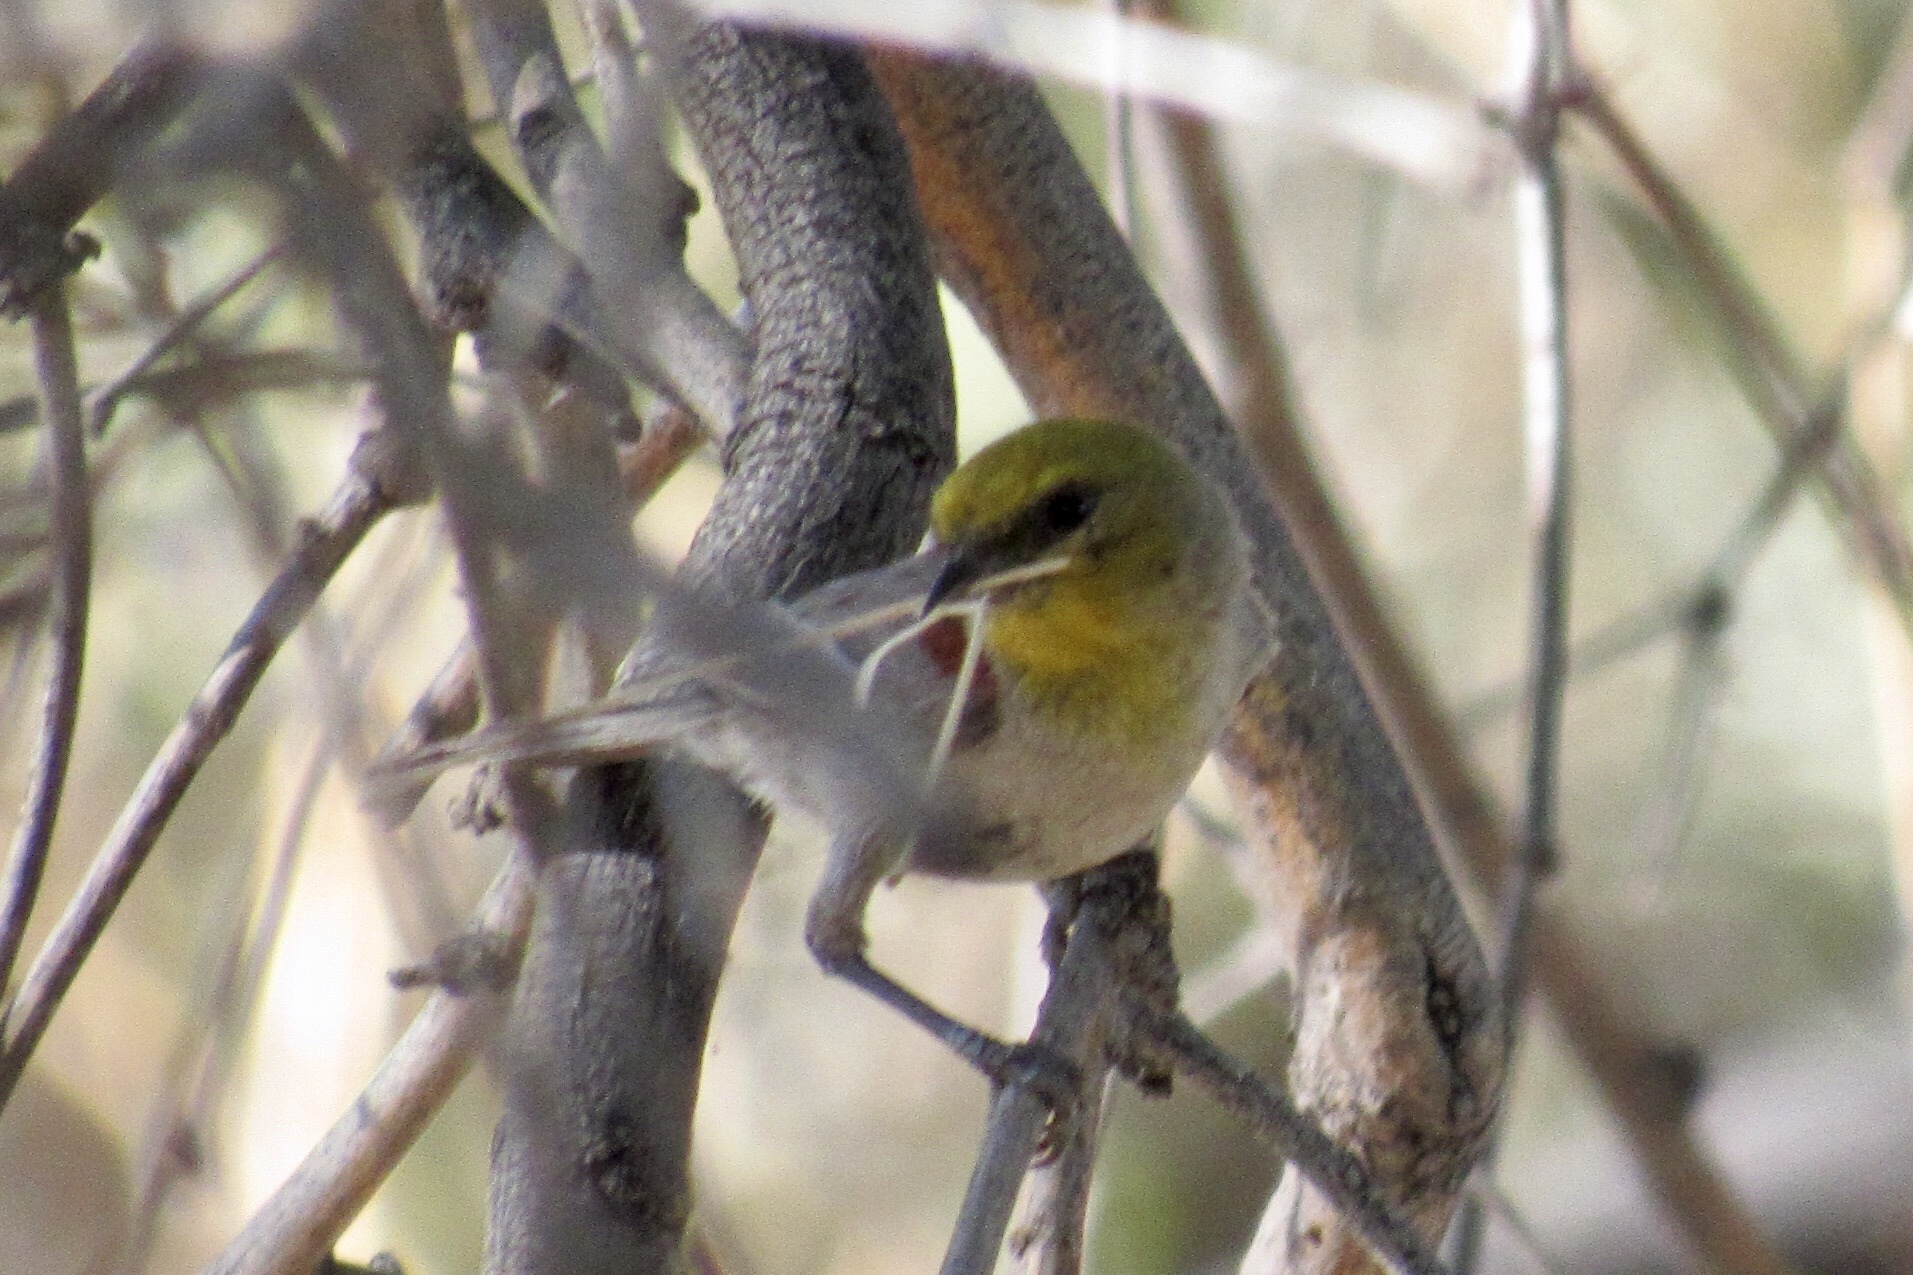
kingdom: Animalia
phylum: Chordata
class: Aves
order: Passeriformes
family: Remizidae
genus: Auriparus
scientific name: Auriparus flaviceps
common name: Verdin
